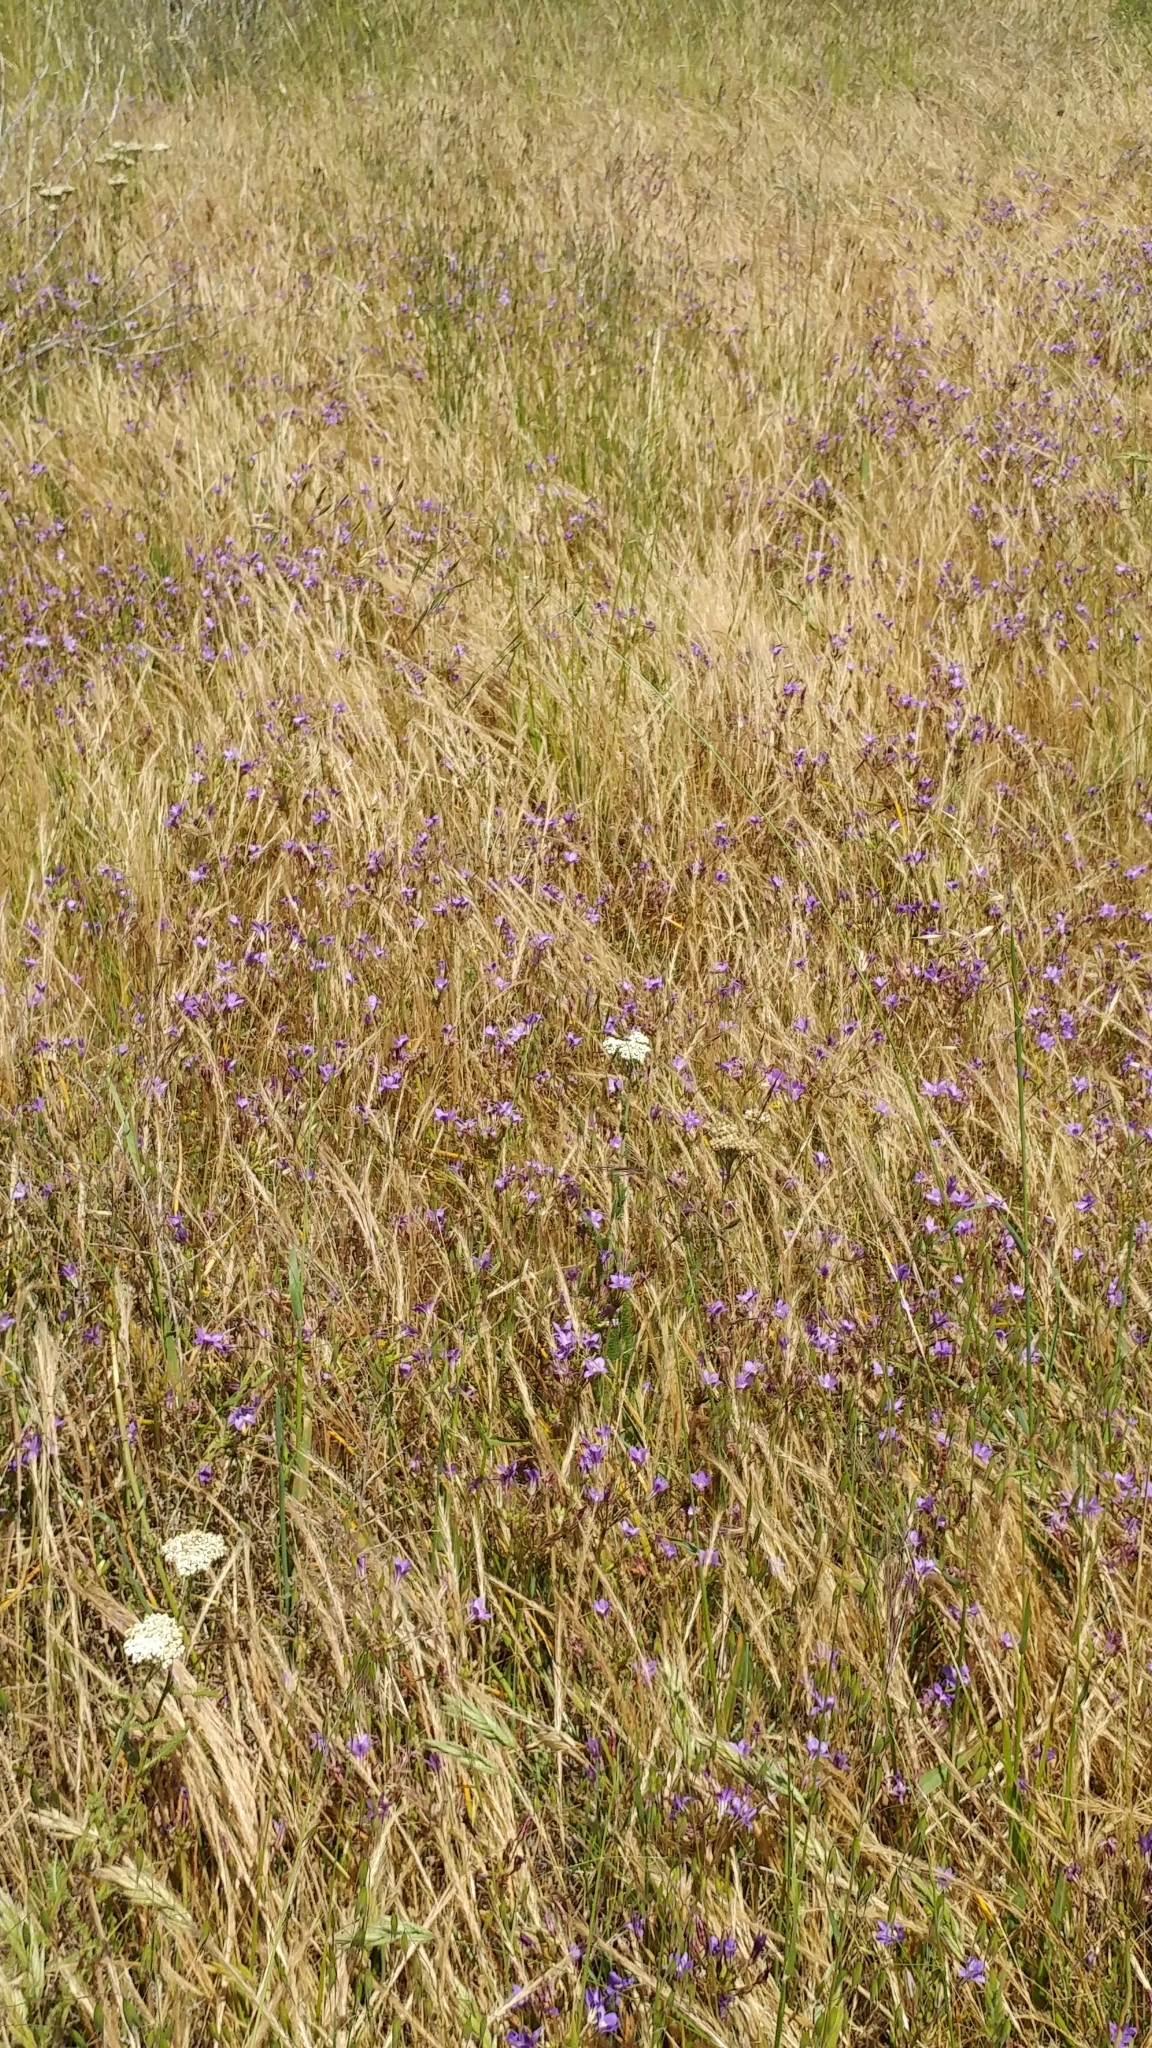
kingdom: Plantae
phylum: Tracheophyta
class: Liliopsida
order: Asparagales
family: Asparagaceae
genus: Brodiaea
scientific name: Brodiaea kinkiensis
